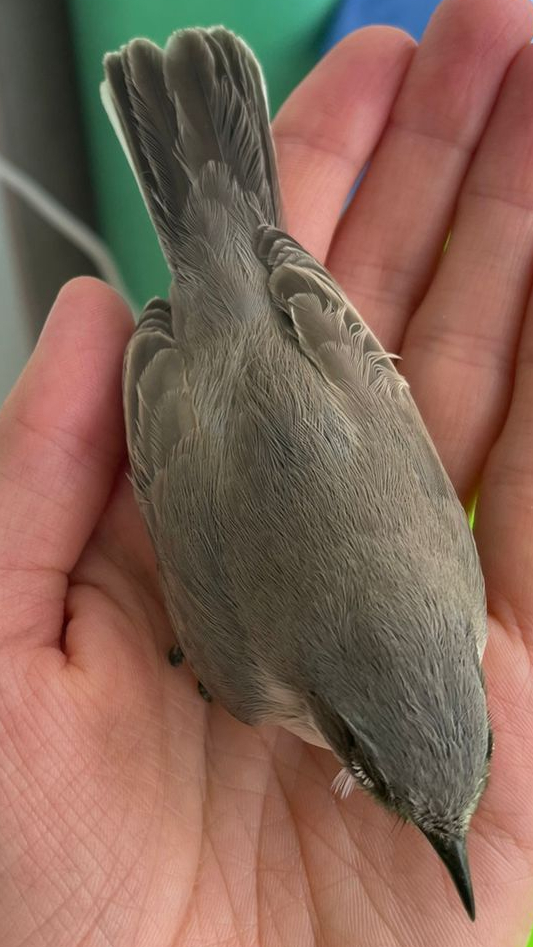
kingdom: Animalia
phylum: Chordata
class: Aves
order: Passeriformes
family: Sylviidae
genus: Sylvia
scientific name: Sylvia curruca
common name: Lesser whitethroat
